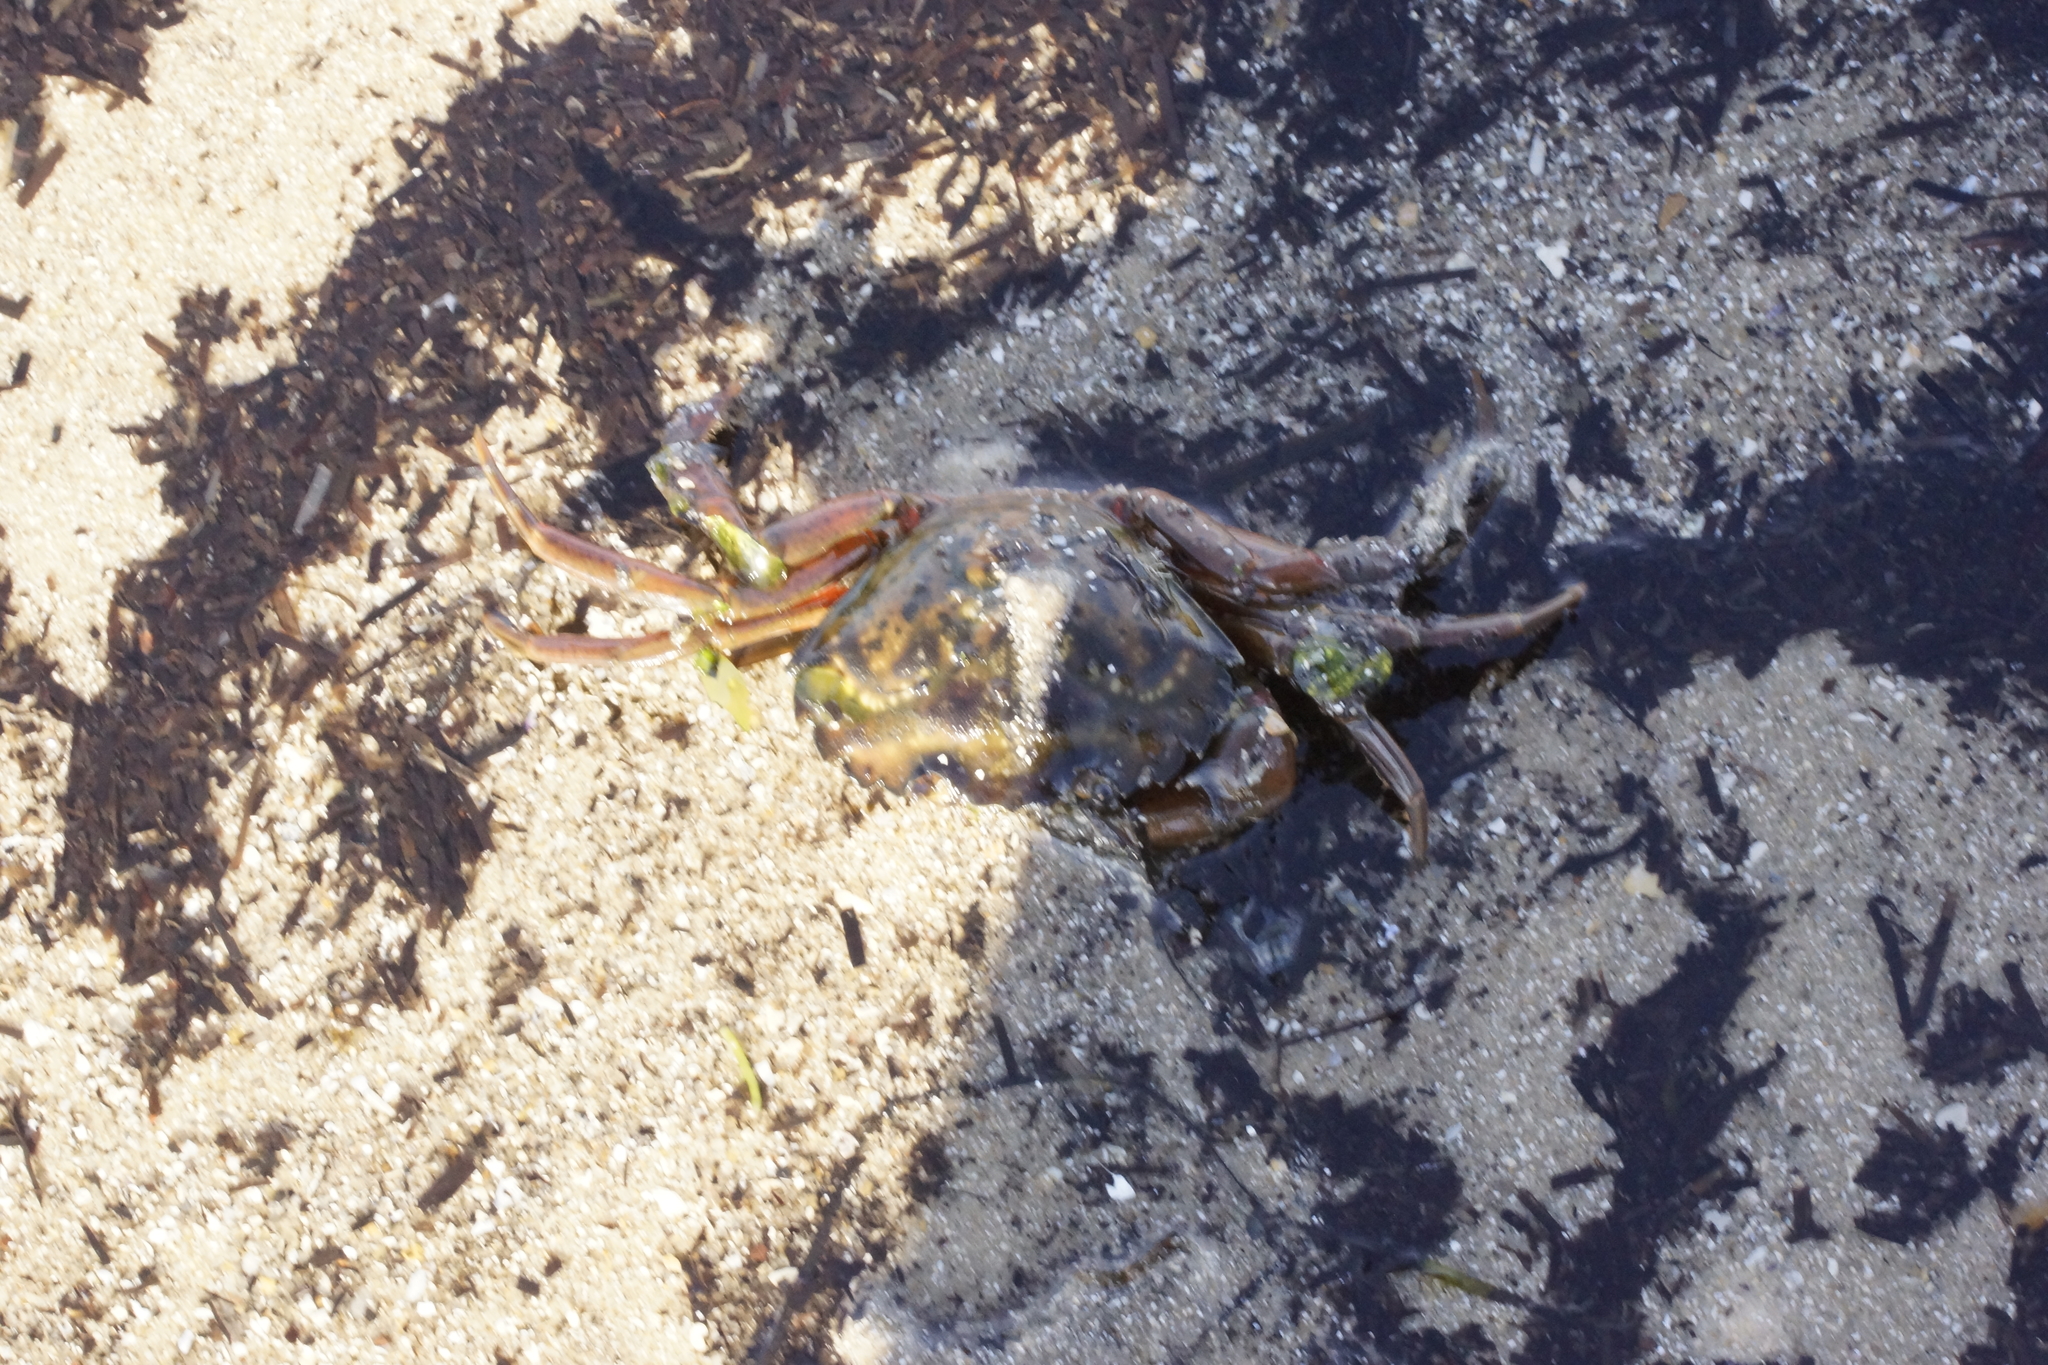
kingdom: Animalia
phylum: Arthropoda
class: Malacostraca
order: Decapoda
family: Carcinidae
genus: Carcinus
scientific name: Carcinus maenas
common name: European green crab
